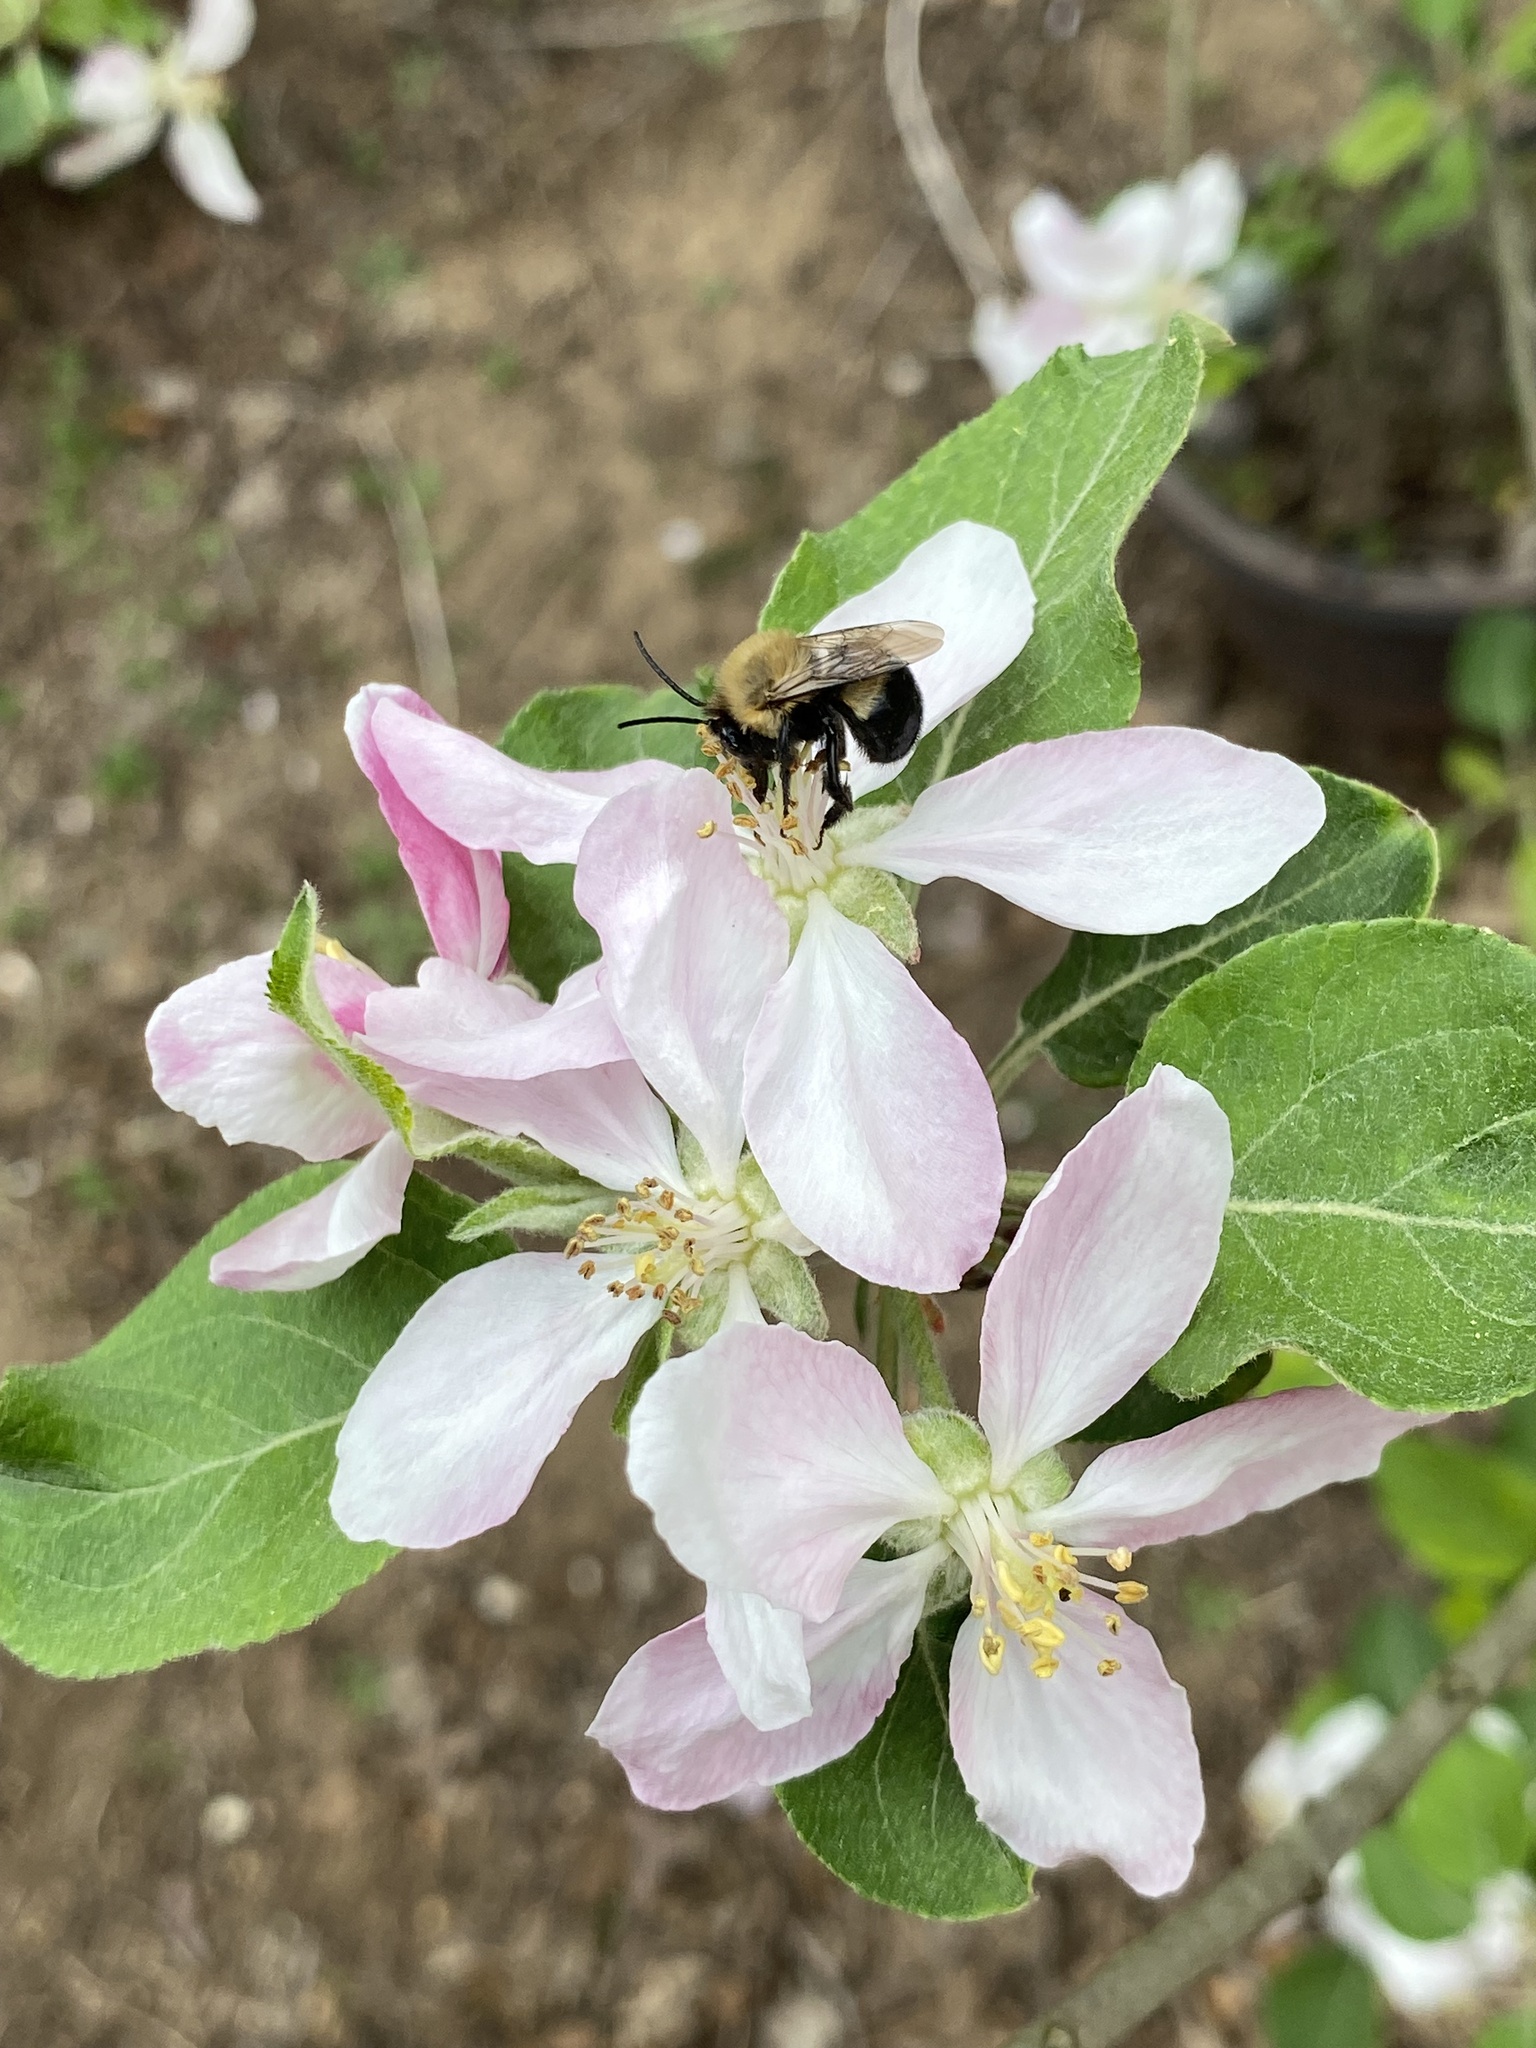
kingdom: Animalia
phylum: Arthropoda
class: Insecta
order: Hymenoptera
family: Apidae
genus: Habropoda
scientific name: Habropoda laboriosa
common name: Southeastern blueberry bee
